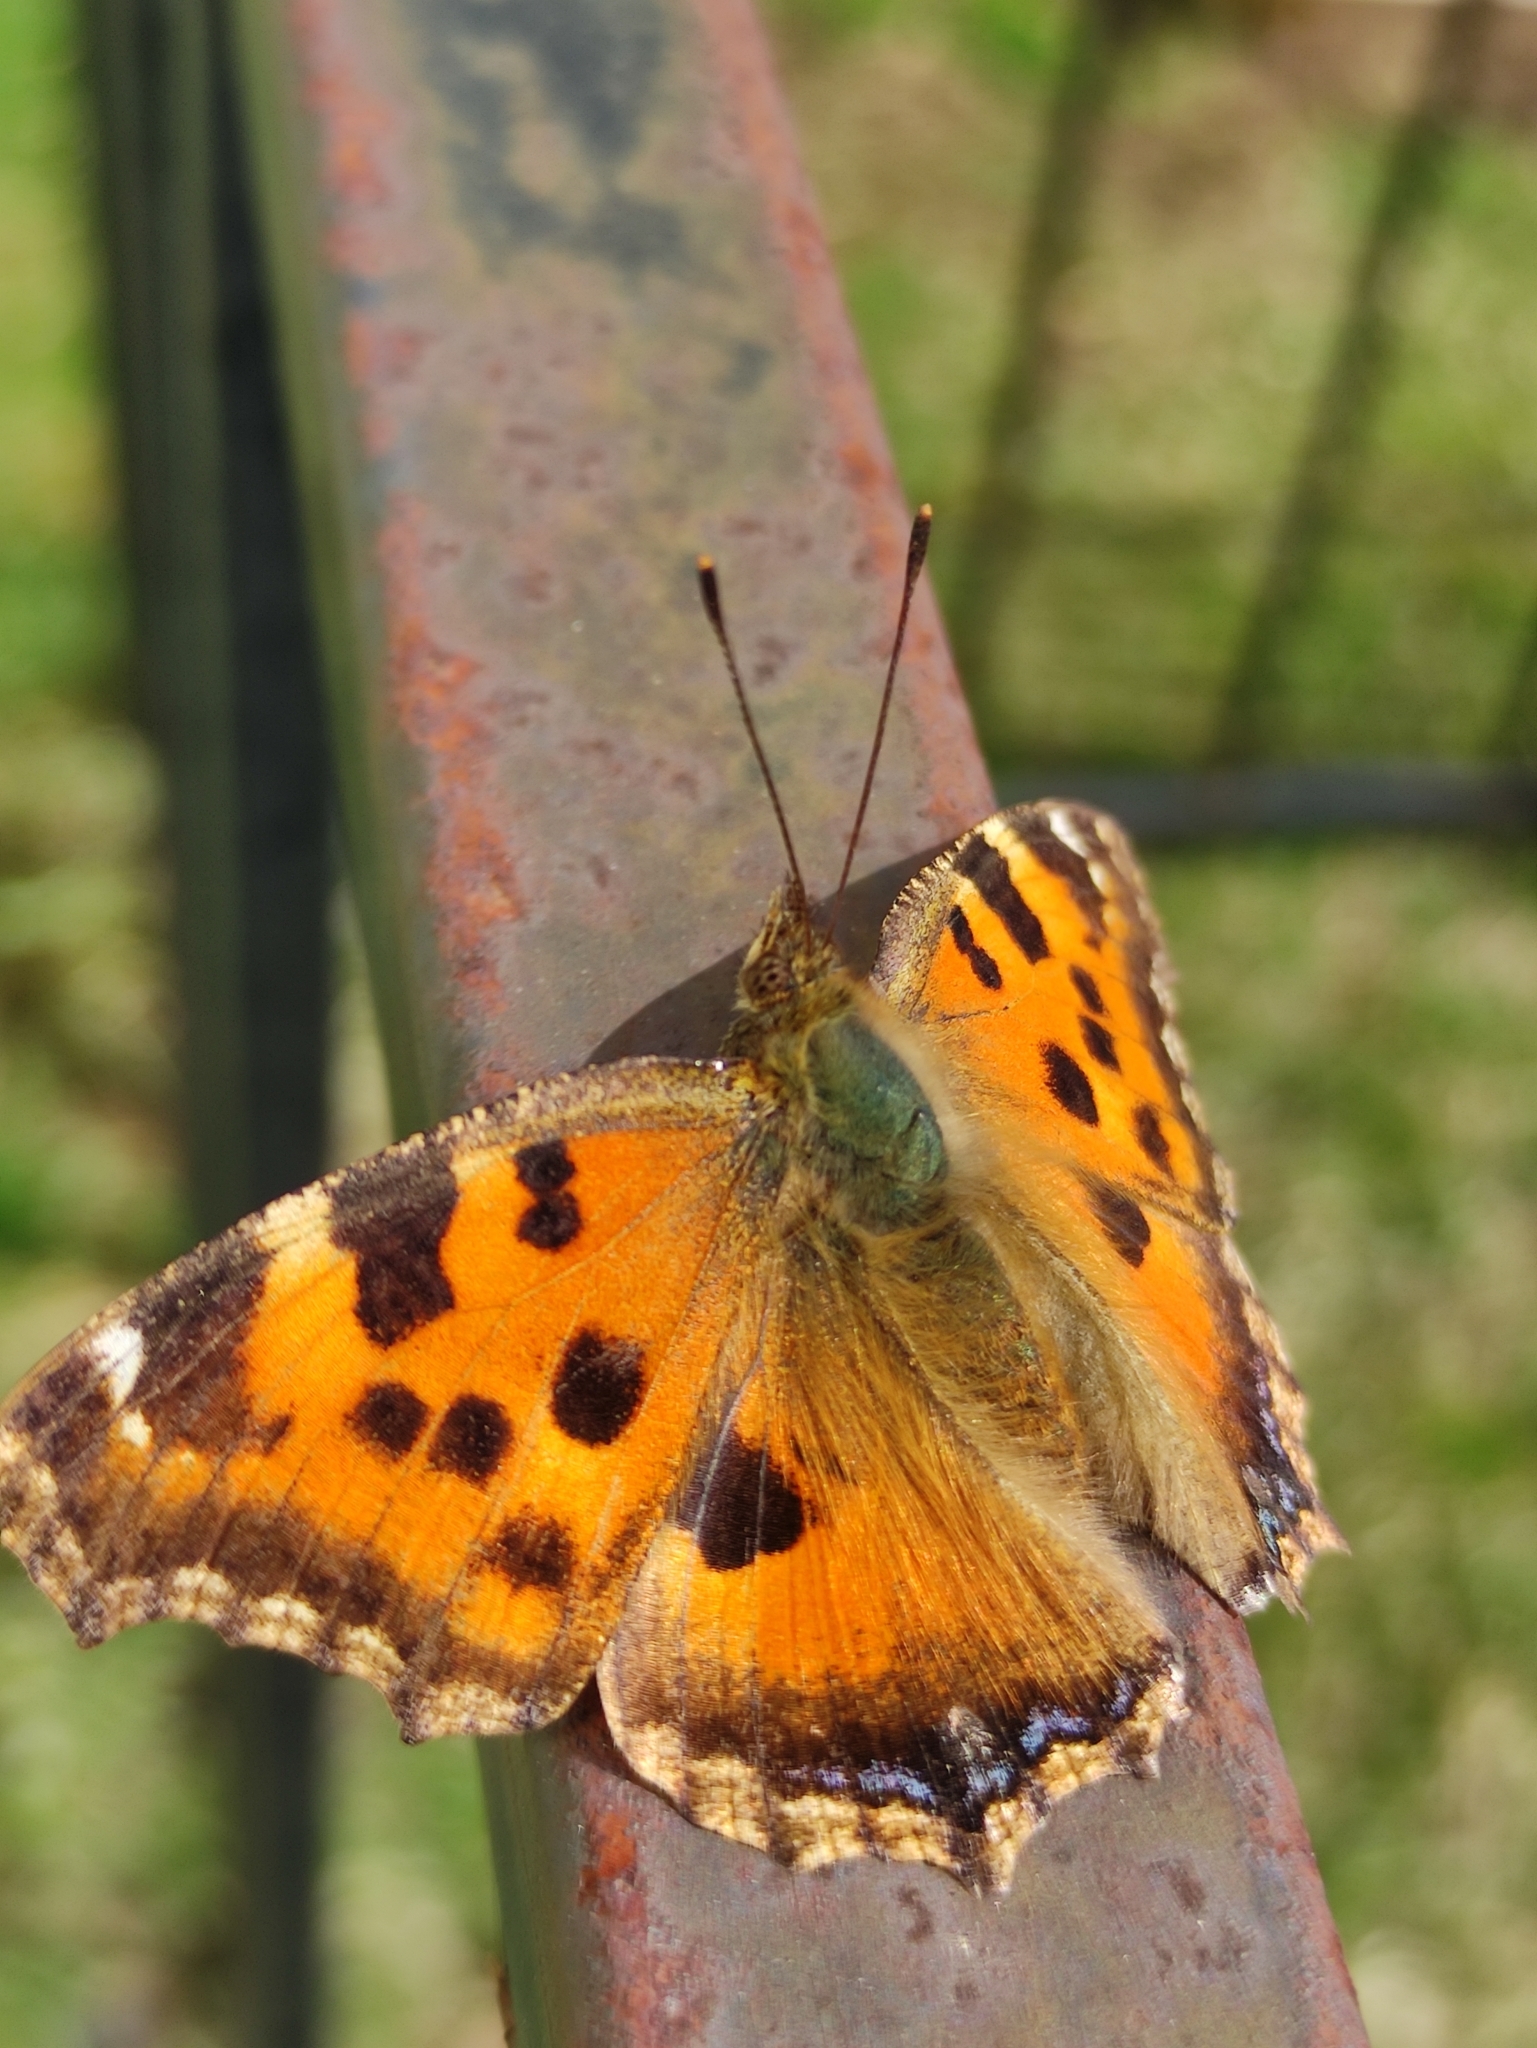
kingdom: Animalia
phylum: Arthropoda
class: Insecta
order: Lepidoptera
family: Nymphalidae
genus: Nymphalis
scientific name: Nymphalis xanthomelas
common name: Scarce tortoiseshell
